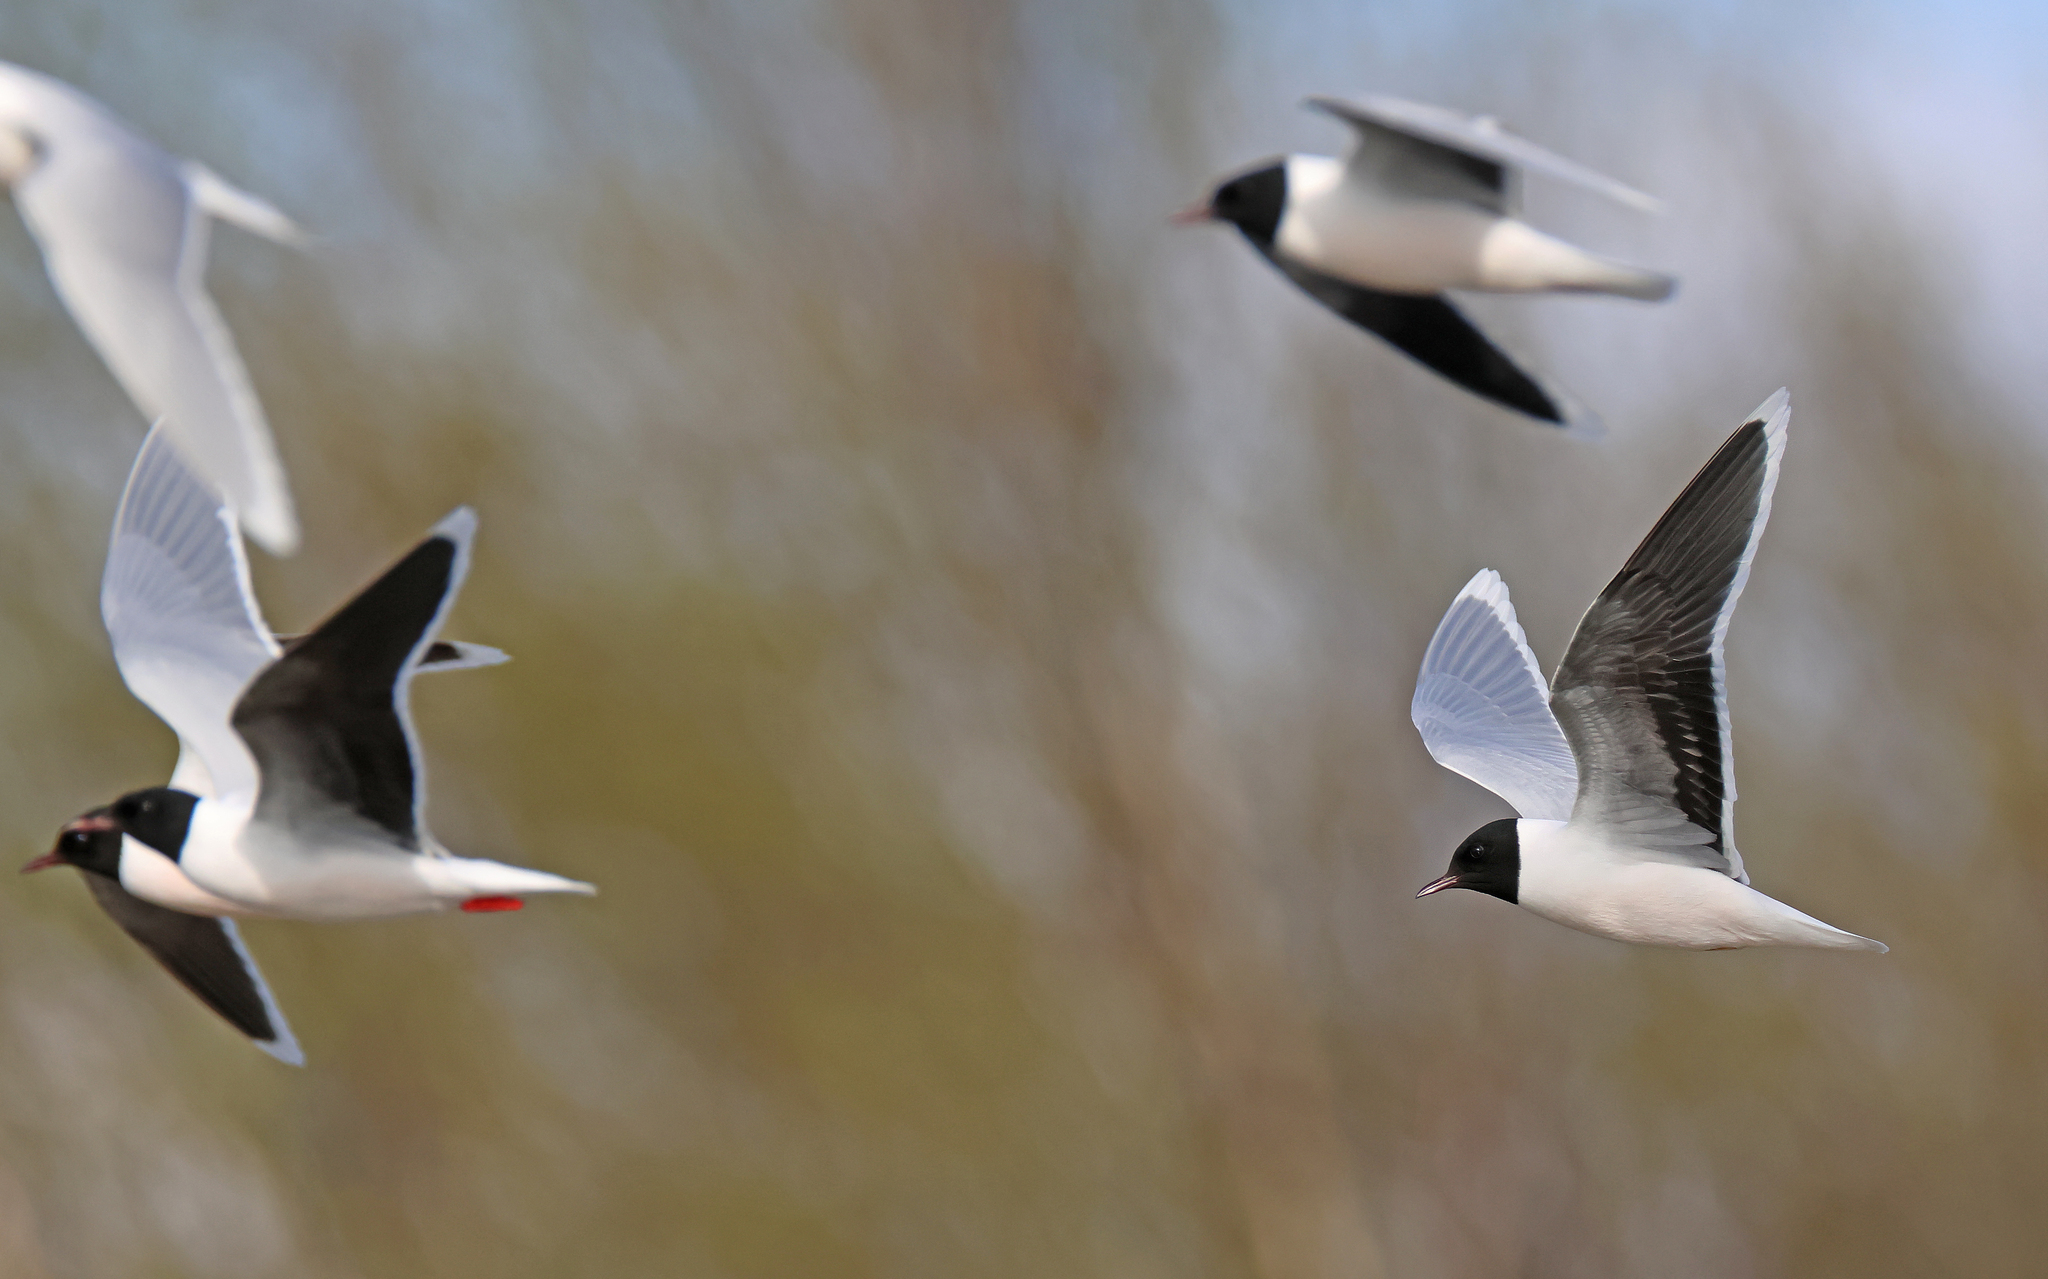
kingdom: Animalia
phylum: Chordata
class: Aves
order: Charadriiformes
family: Laridae
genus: Hydrocoloeus
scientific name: Hydrocoloeus minutus
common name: Little gull
